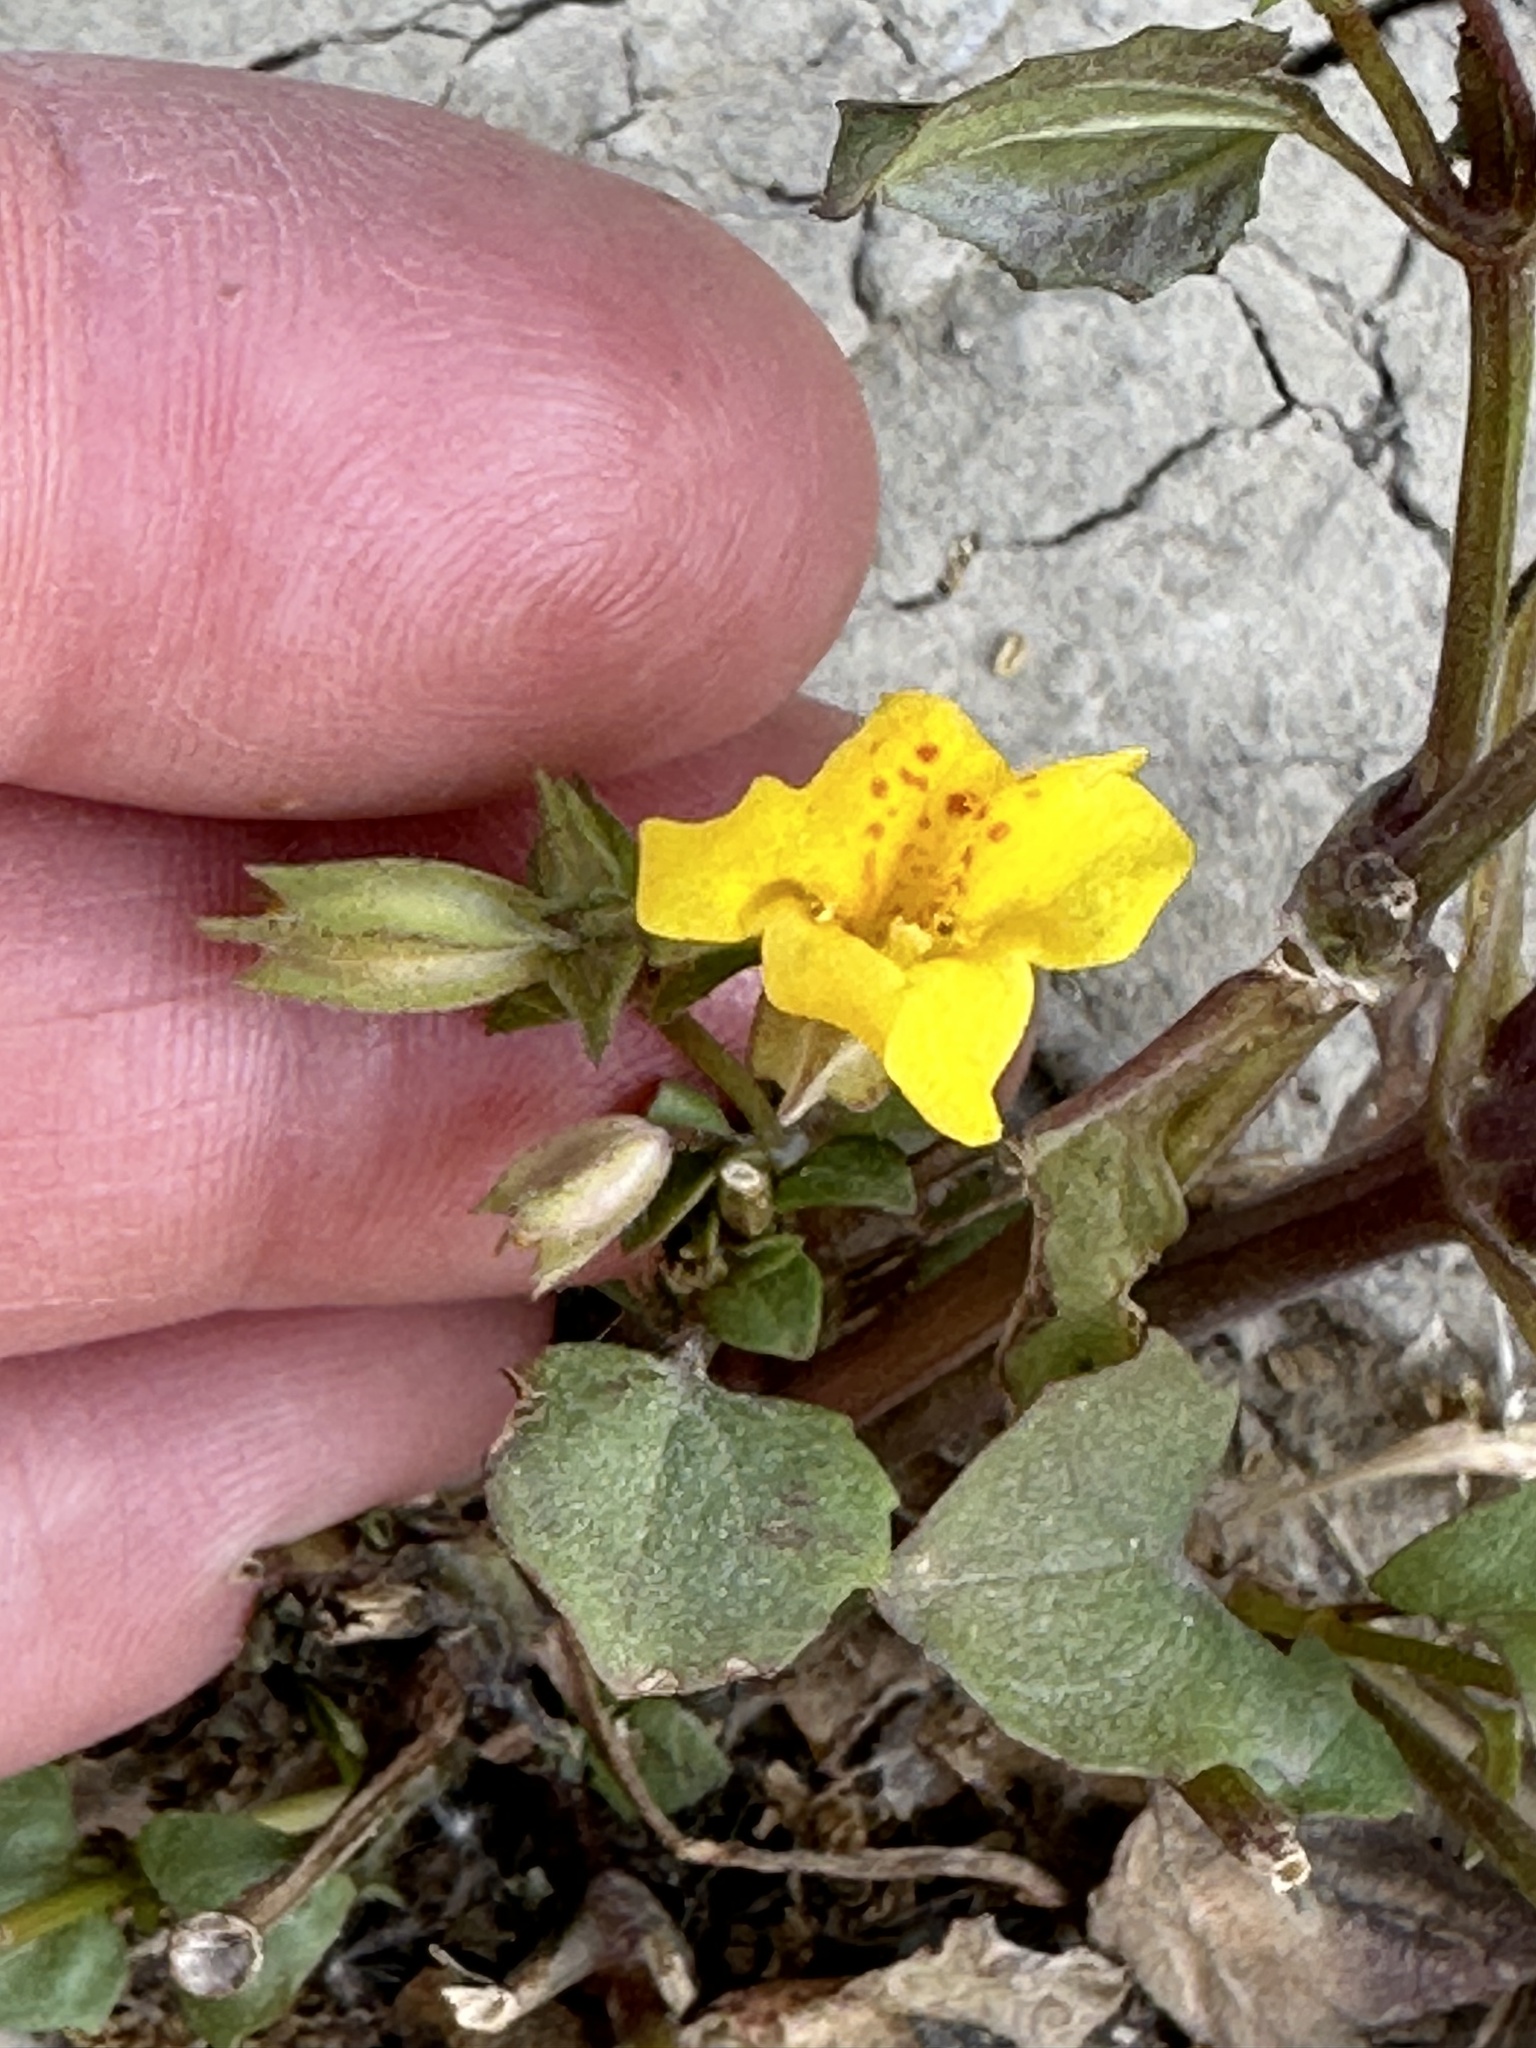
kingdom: Plantae
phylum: Tracheophyta
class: Magnoliopsida
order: Lamiales
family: Phrymaceae
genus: Erythranthe
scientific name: Erythranthe guttata
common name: Monkeyflower
